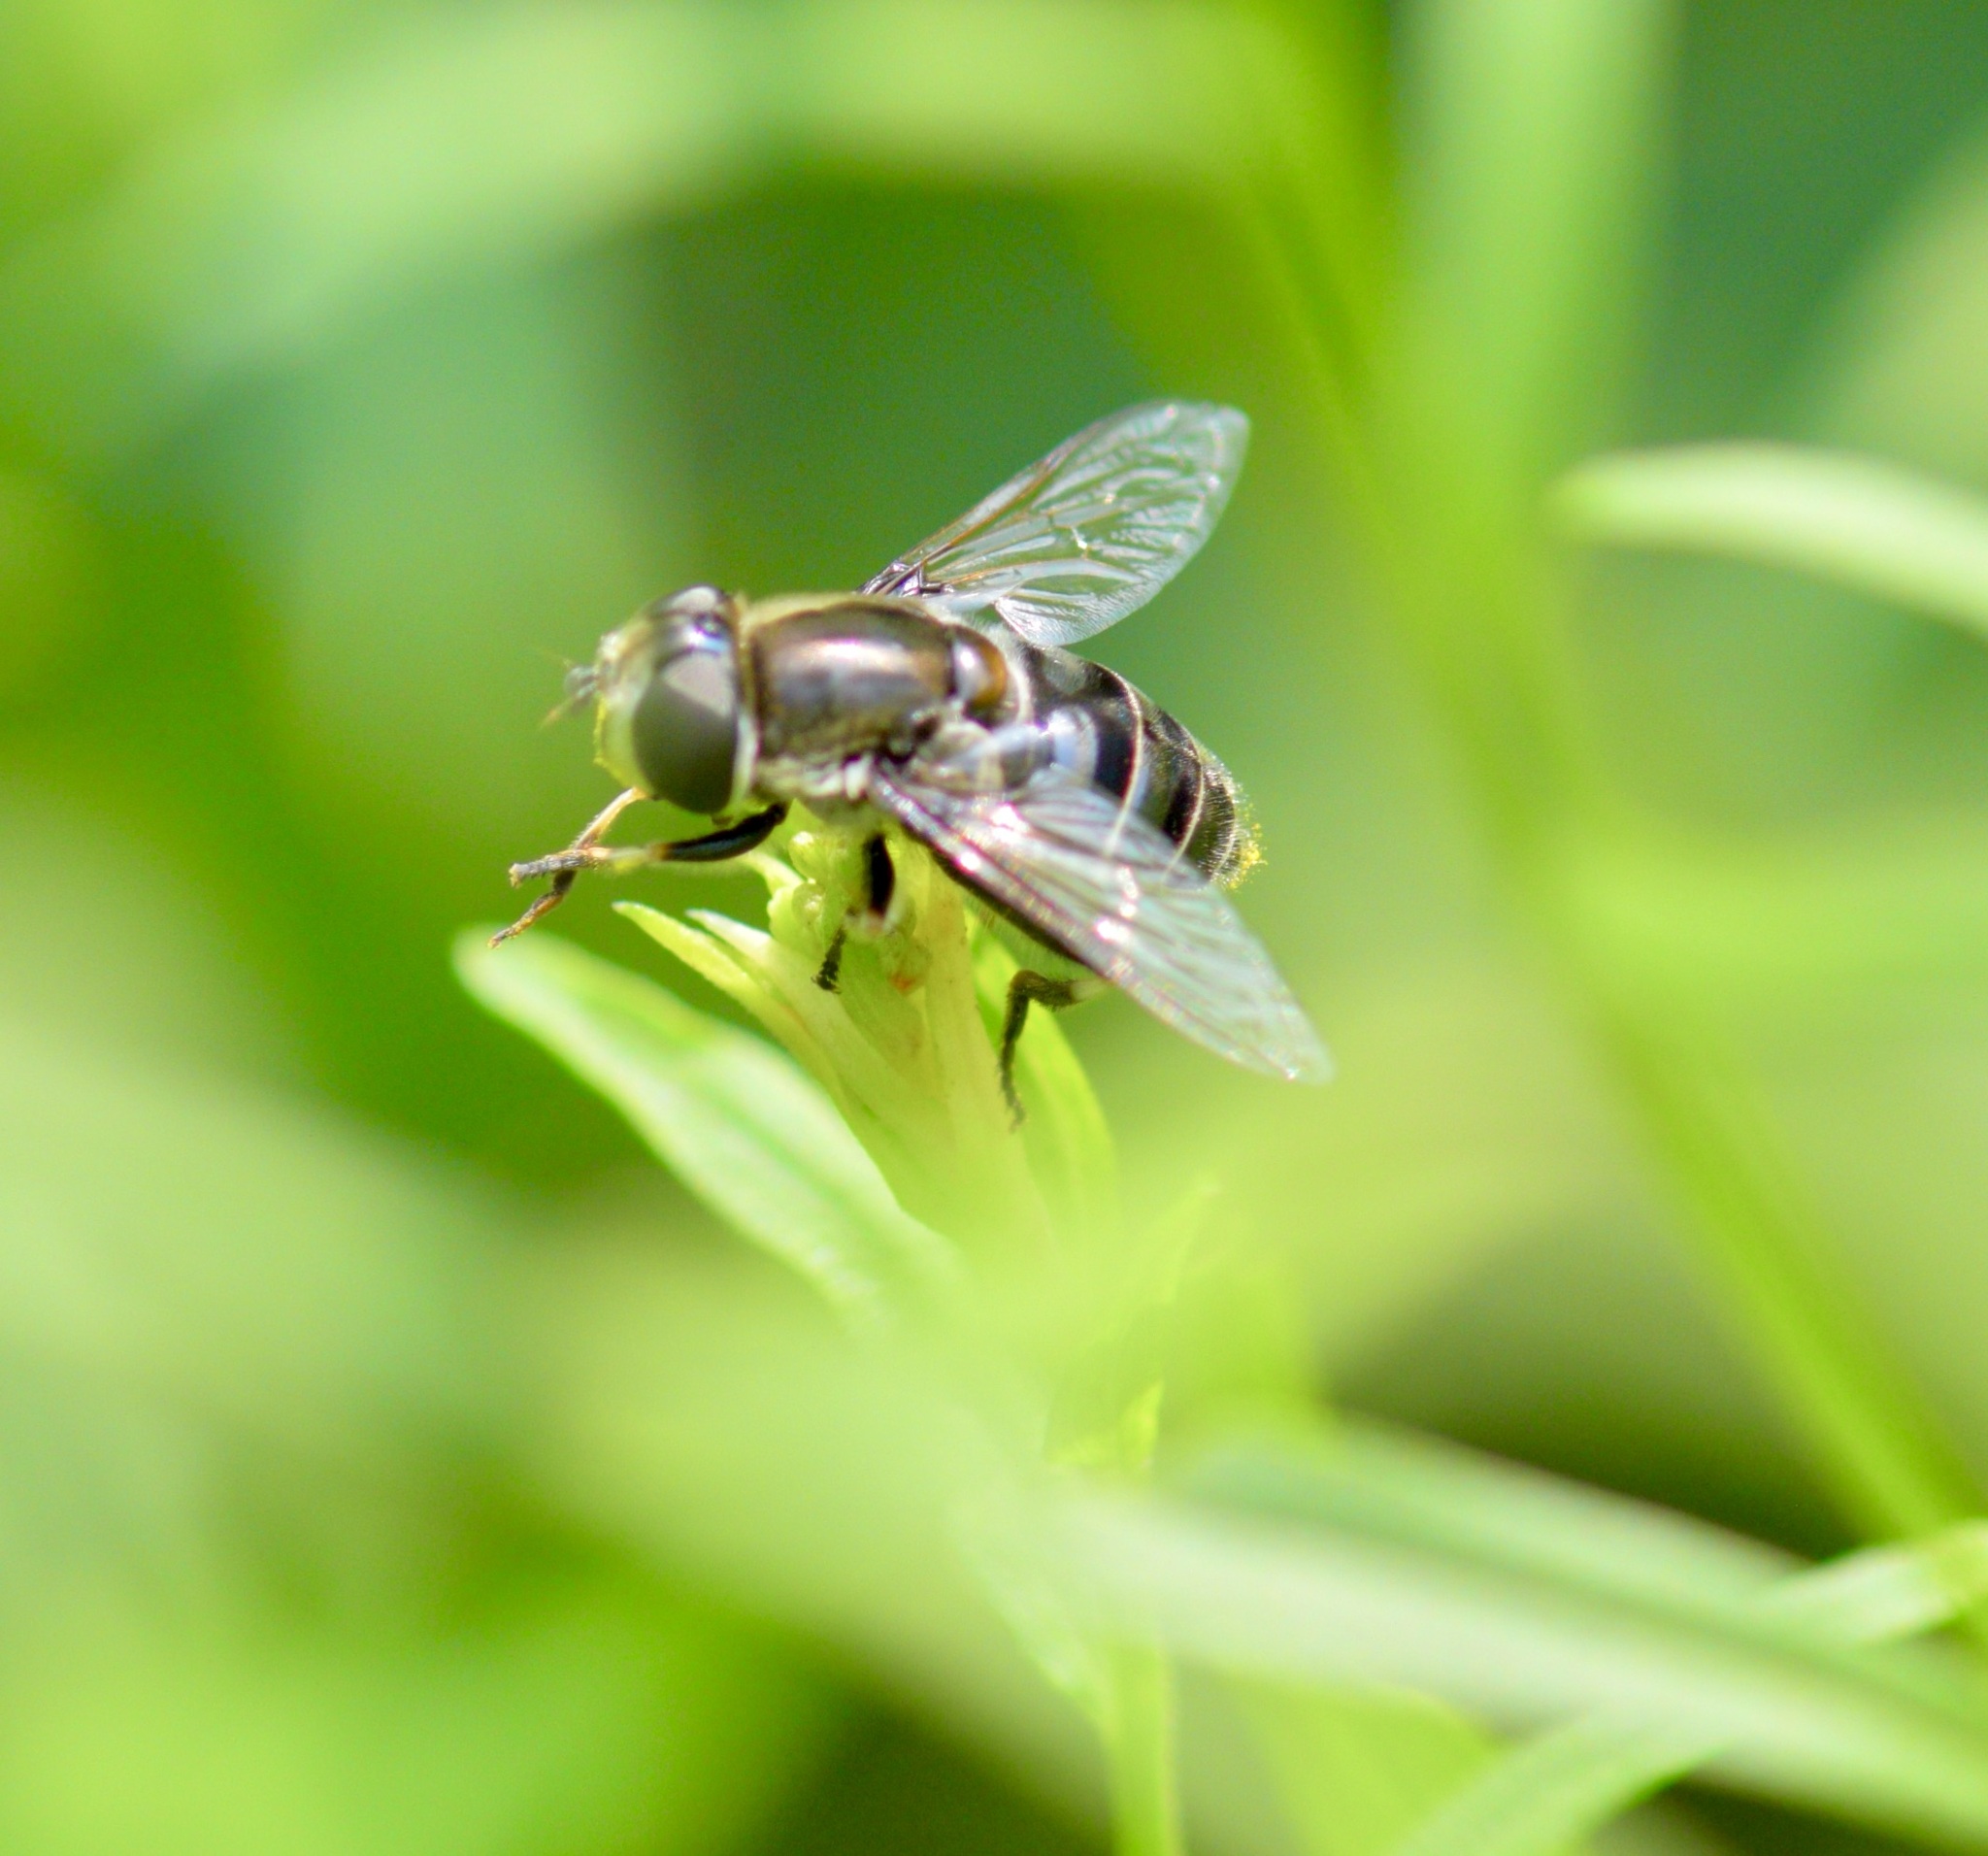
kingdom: Animalia
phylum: Arthropoda
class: Insecta
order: Diptera
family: Syrphidae
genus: Eristalis
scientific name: Eristalis dimidiata
